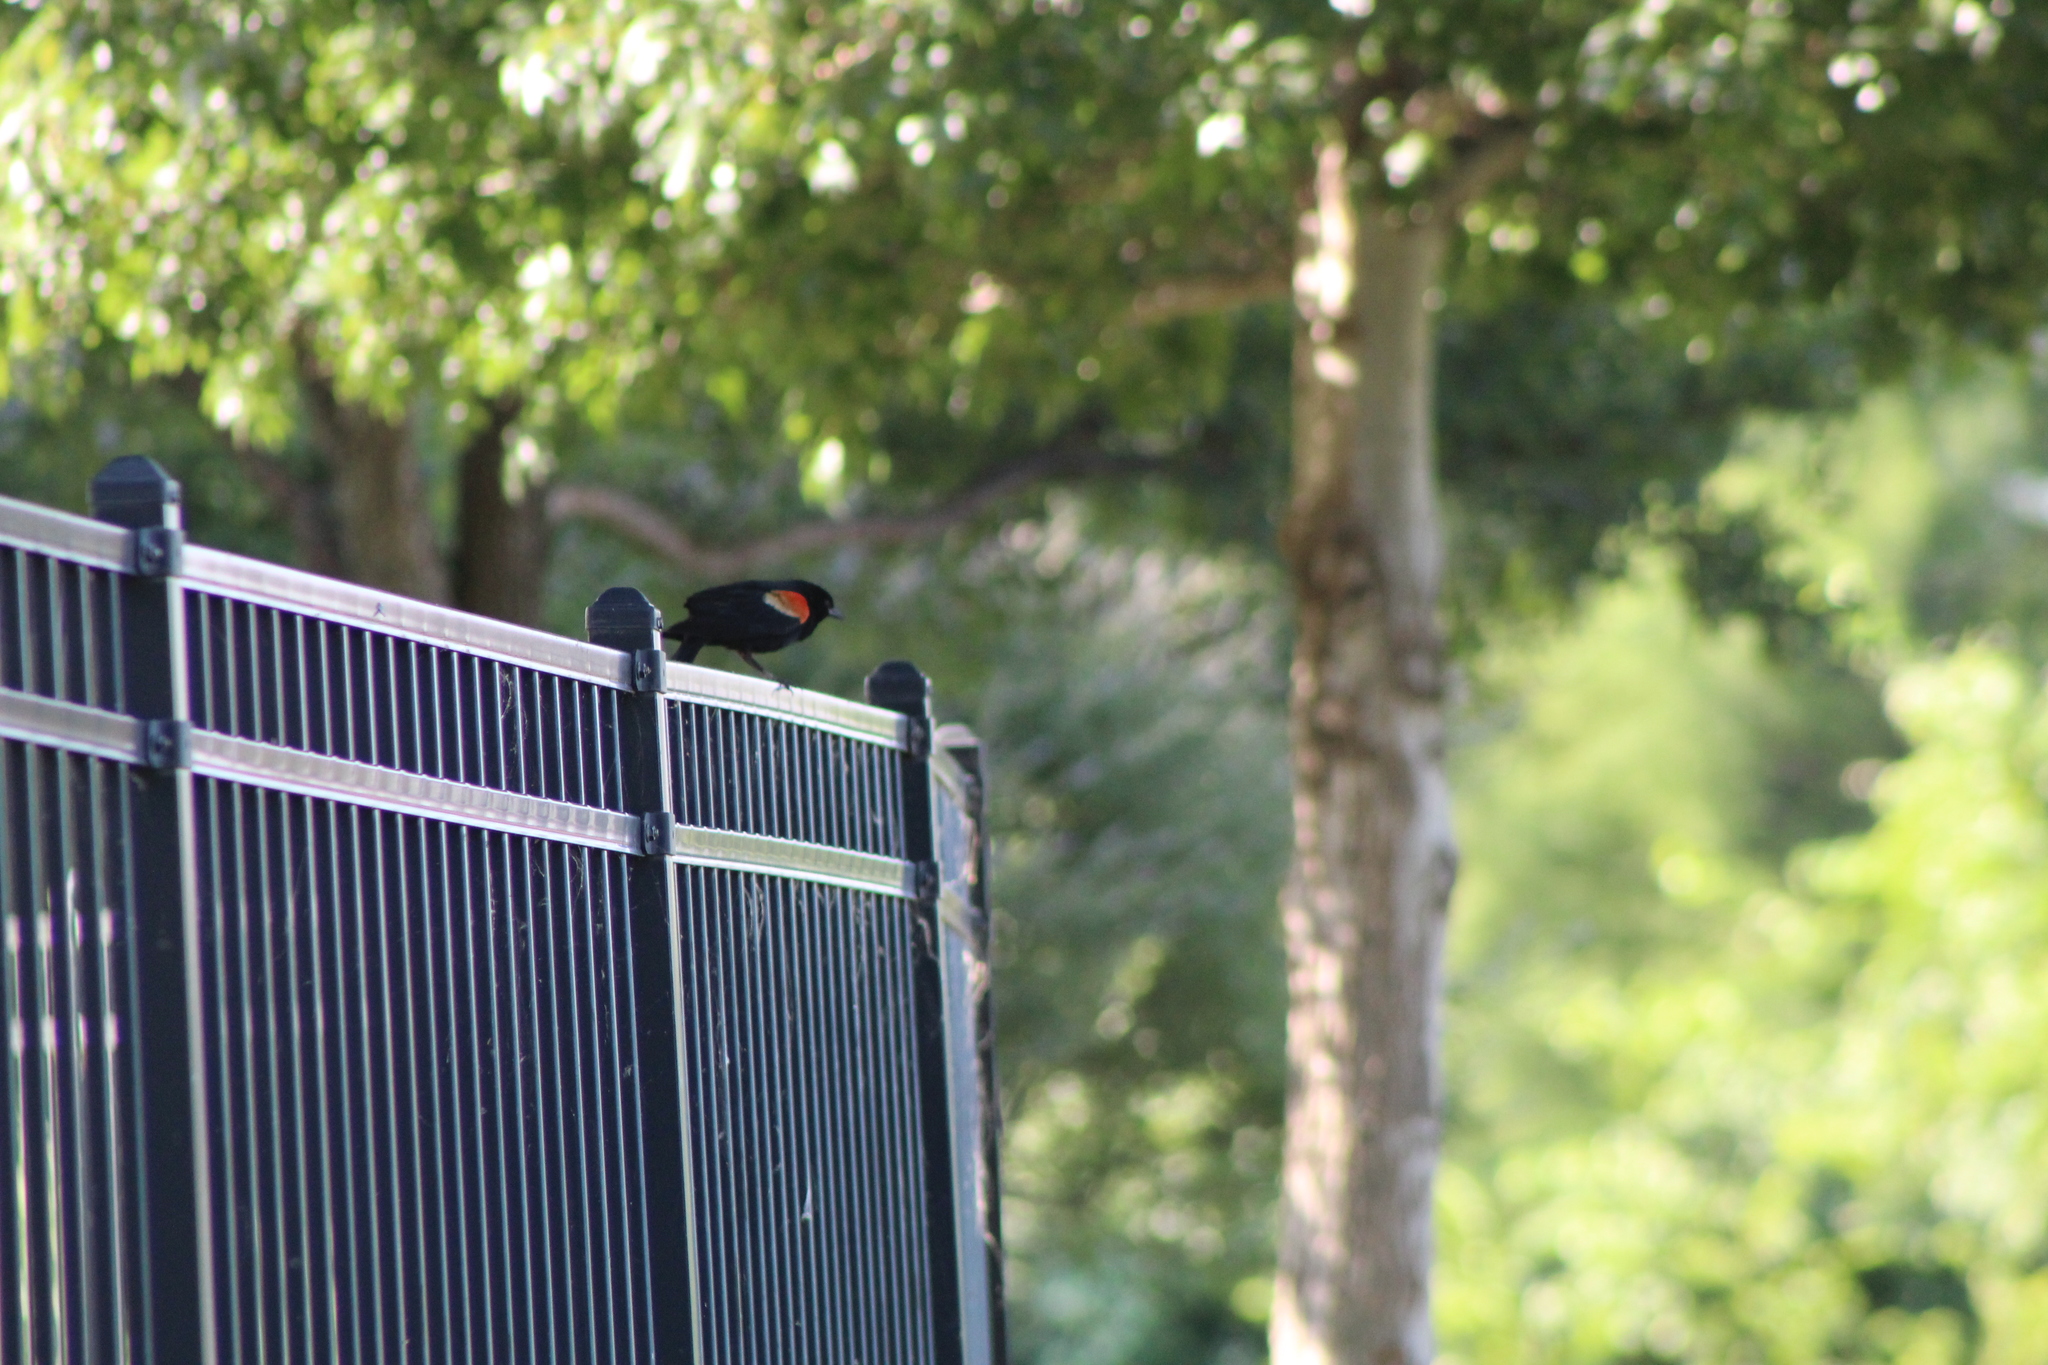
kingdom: Animalia
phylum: Chordata
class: Aves
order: Passeriformes
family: Icteridae
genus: Agelaius
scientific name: Agelaius phoeniceus
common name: Red-winged blackbird
